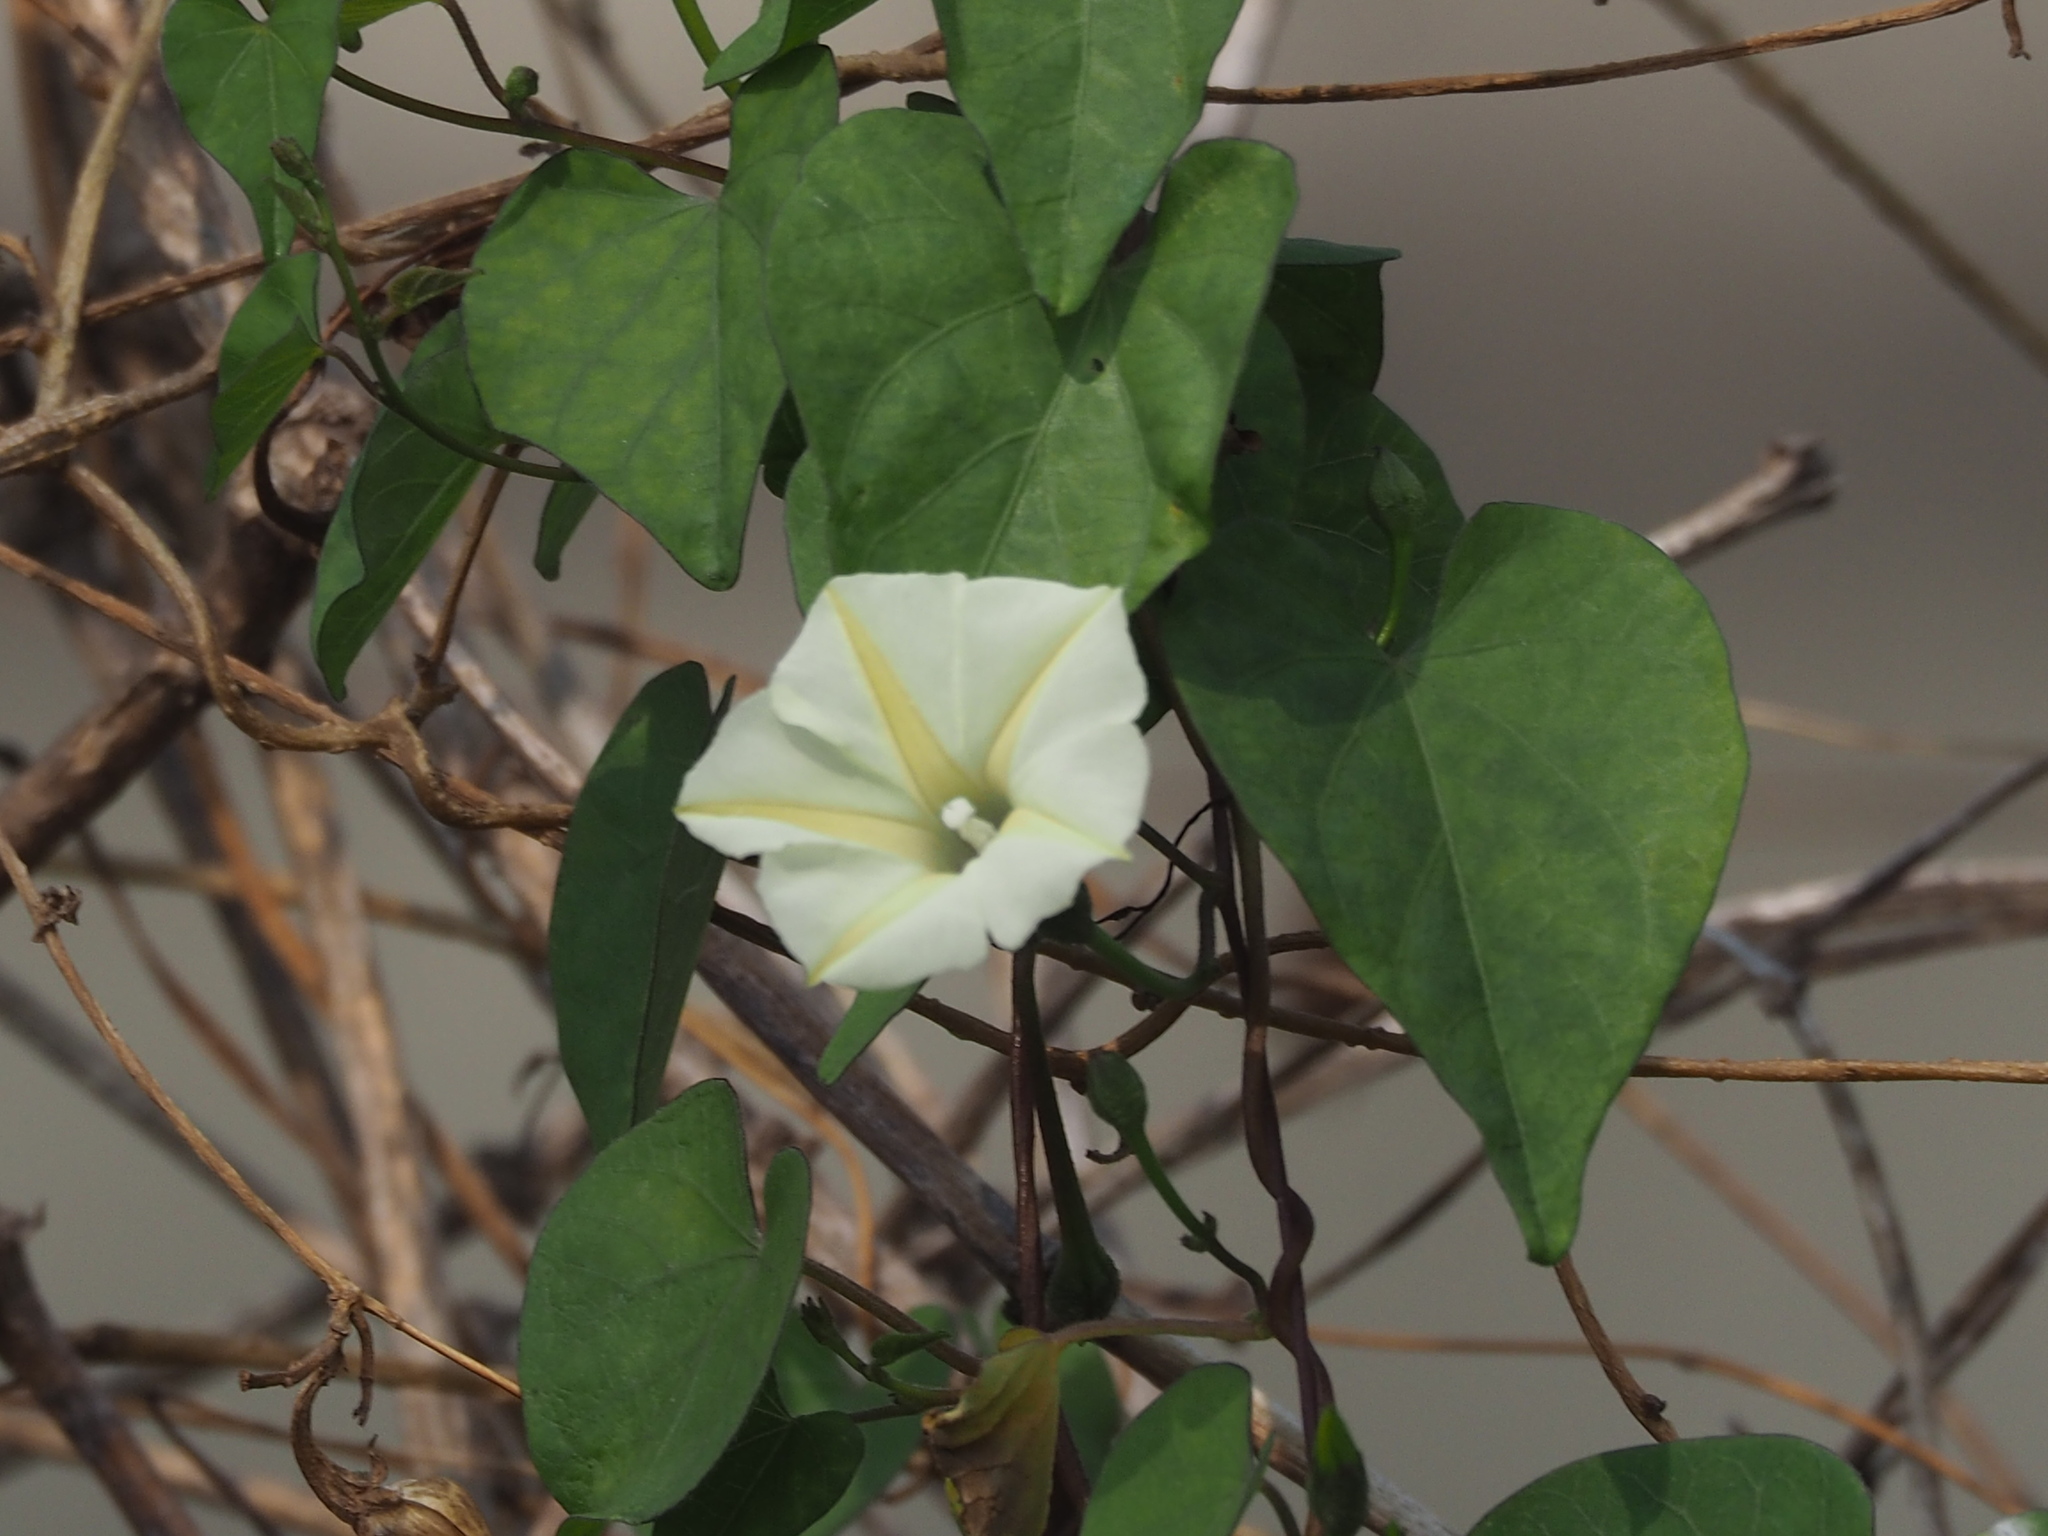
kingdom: Plantae
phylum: Tracheophyta
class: Magnoliopsida
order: Solanales
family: Convolvulaceae
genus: Ipomoea
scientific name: Ipomoea obscura
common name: Obscure morning-glory
